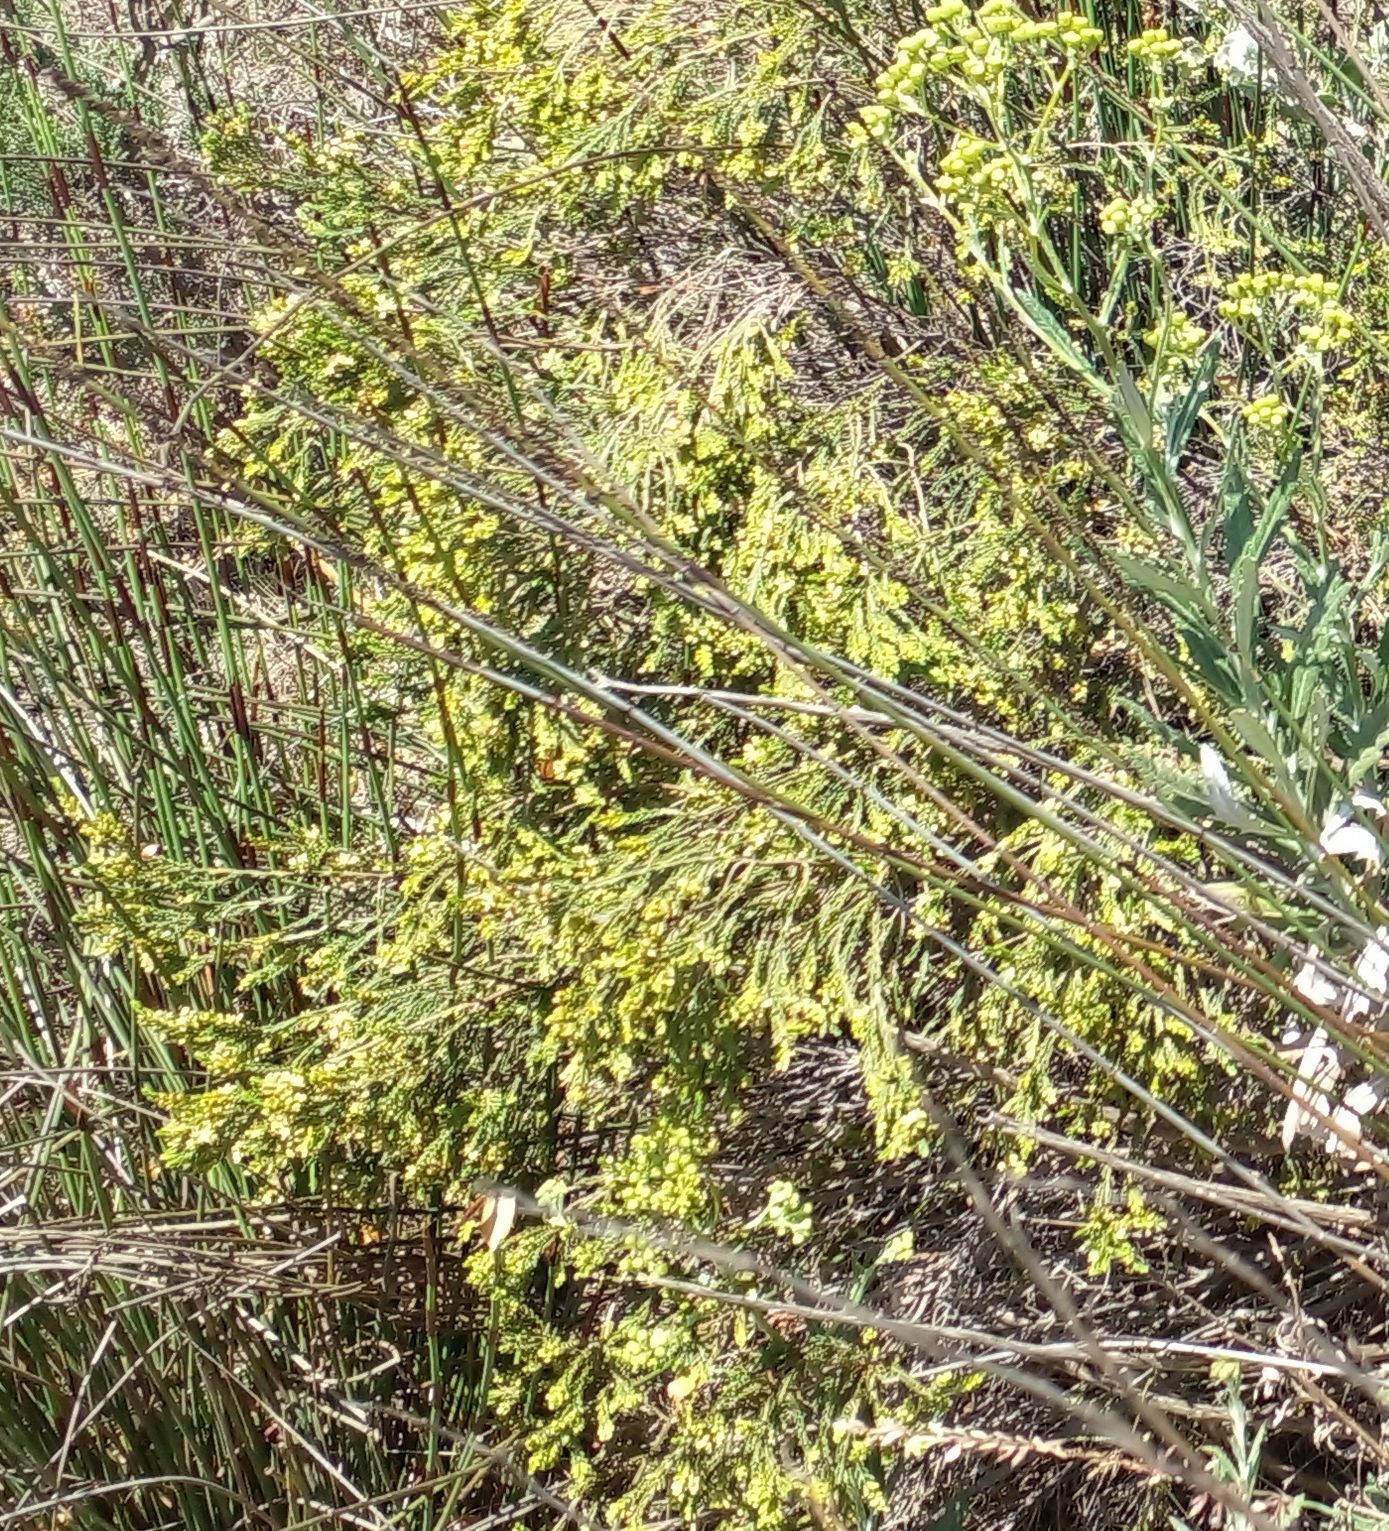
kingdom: Plantae
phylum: Tracheophyta
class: Magnoliopsida
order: Asterales
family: Asteraceae
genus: Senecio
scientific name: Senecio pterophorus
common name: Shoddy ragwort
